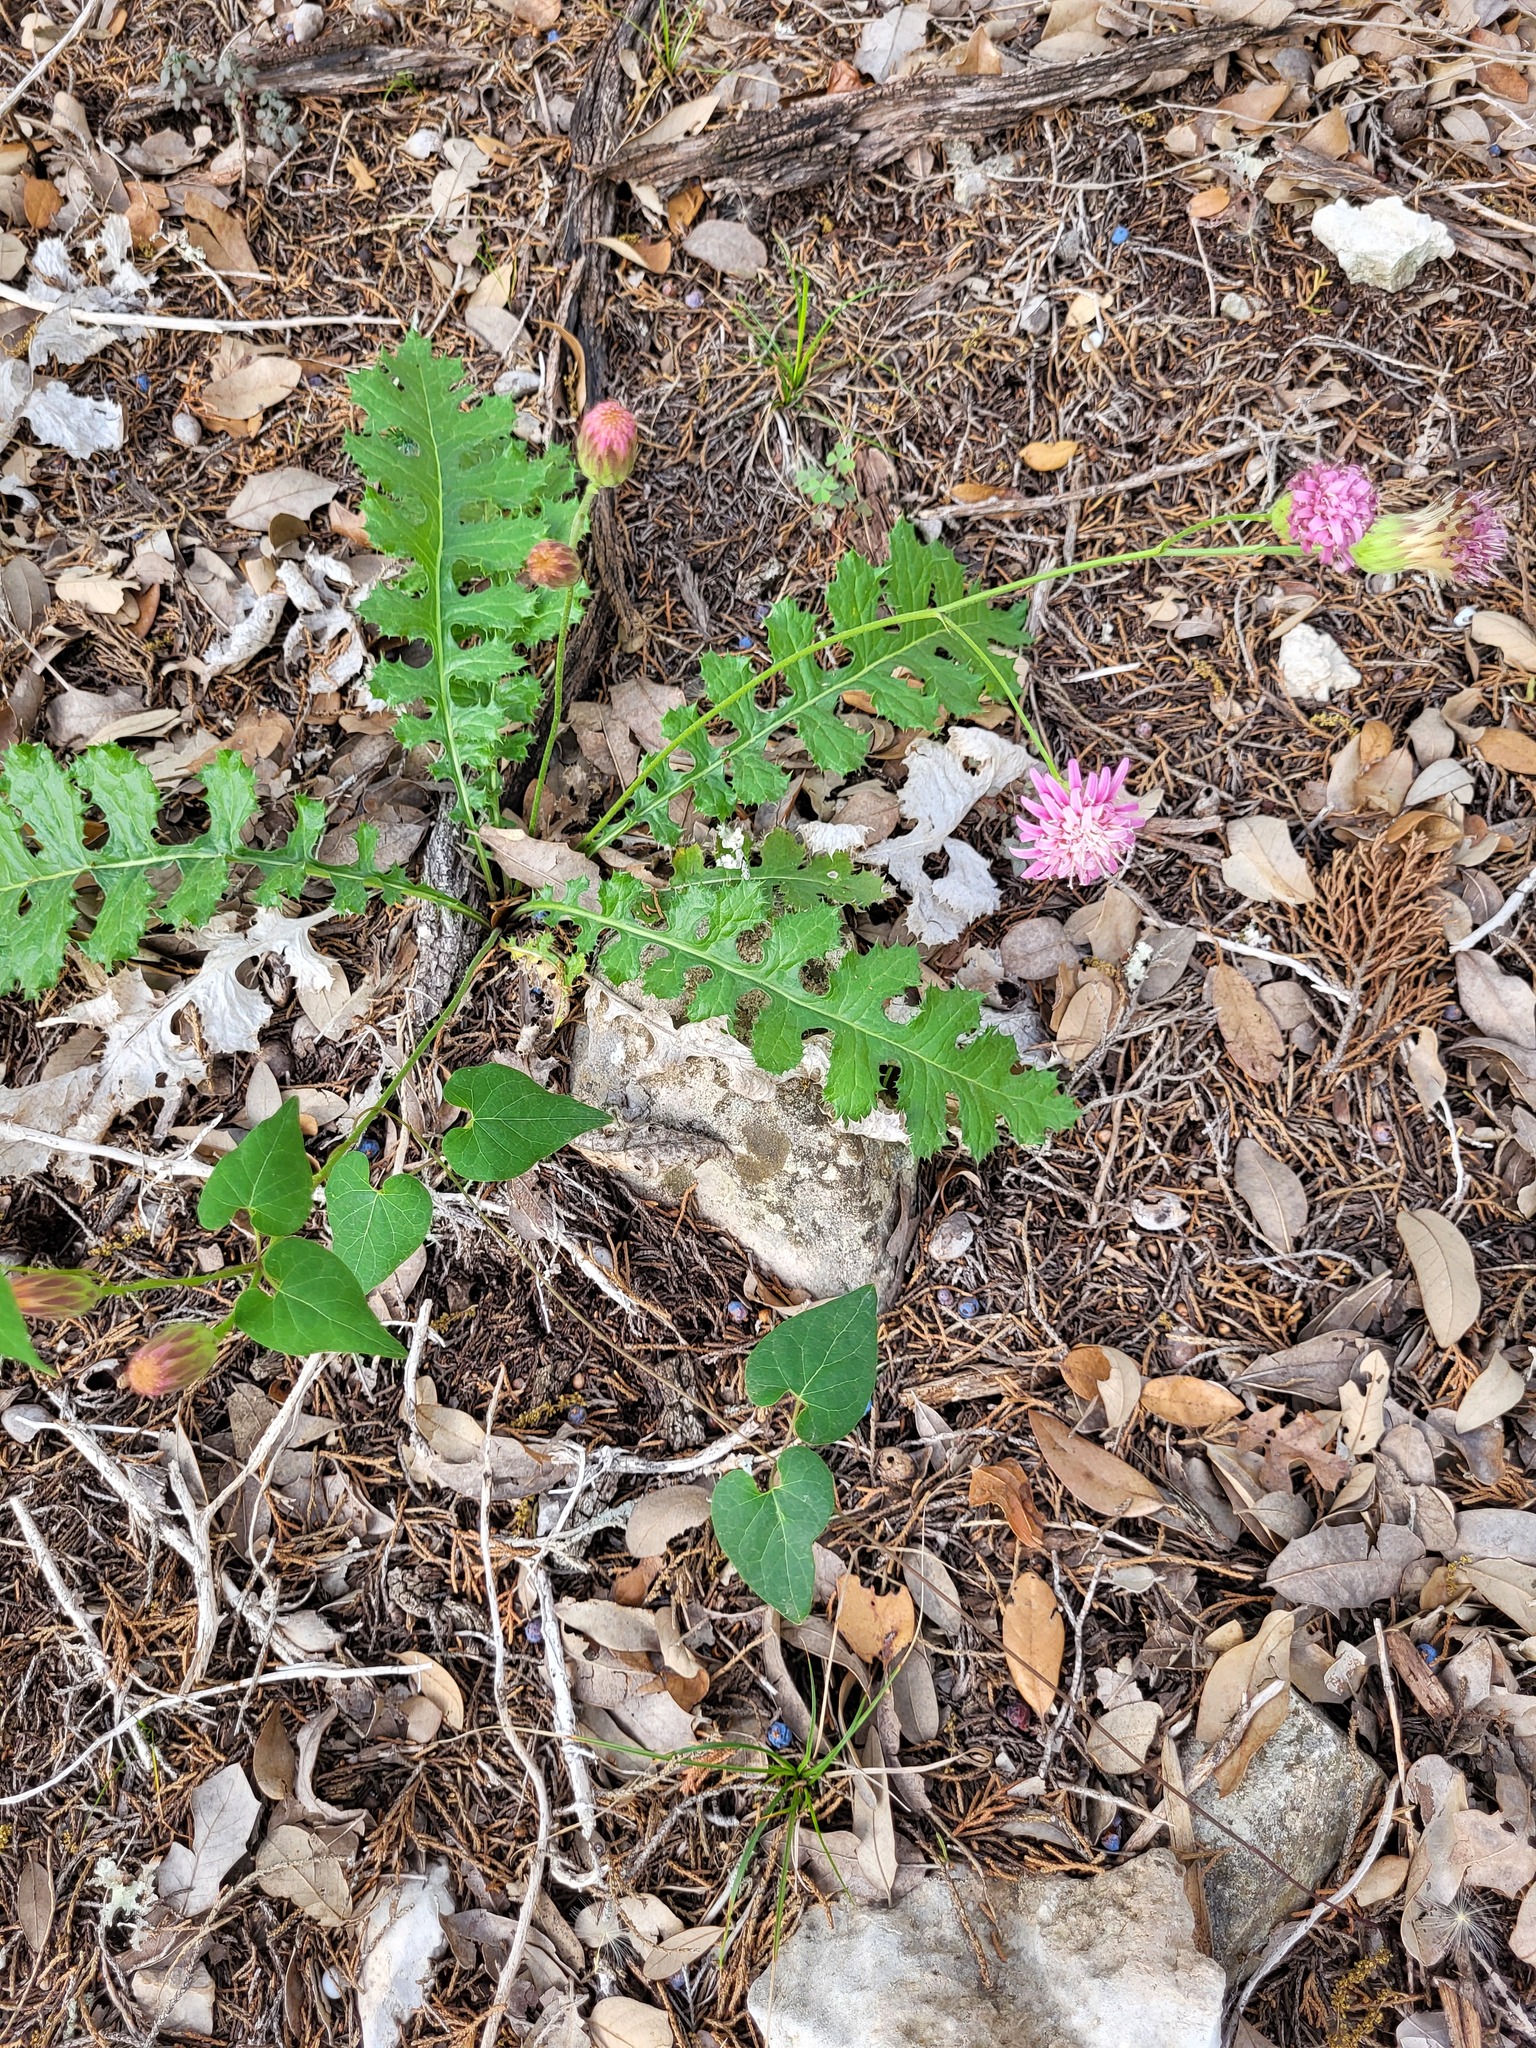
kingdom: Plantae
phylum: Tracheophyta
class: Magnoliopsida
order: Asterales
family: Asteraceae
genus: Acourtia
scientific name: Acourtia runcinata
